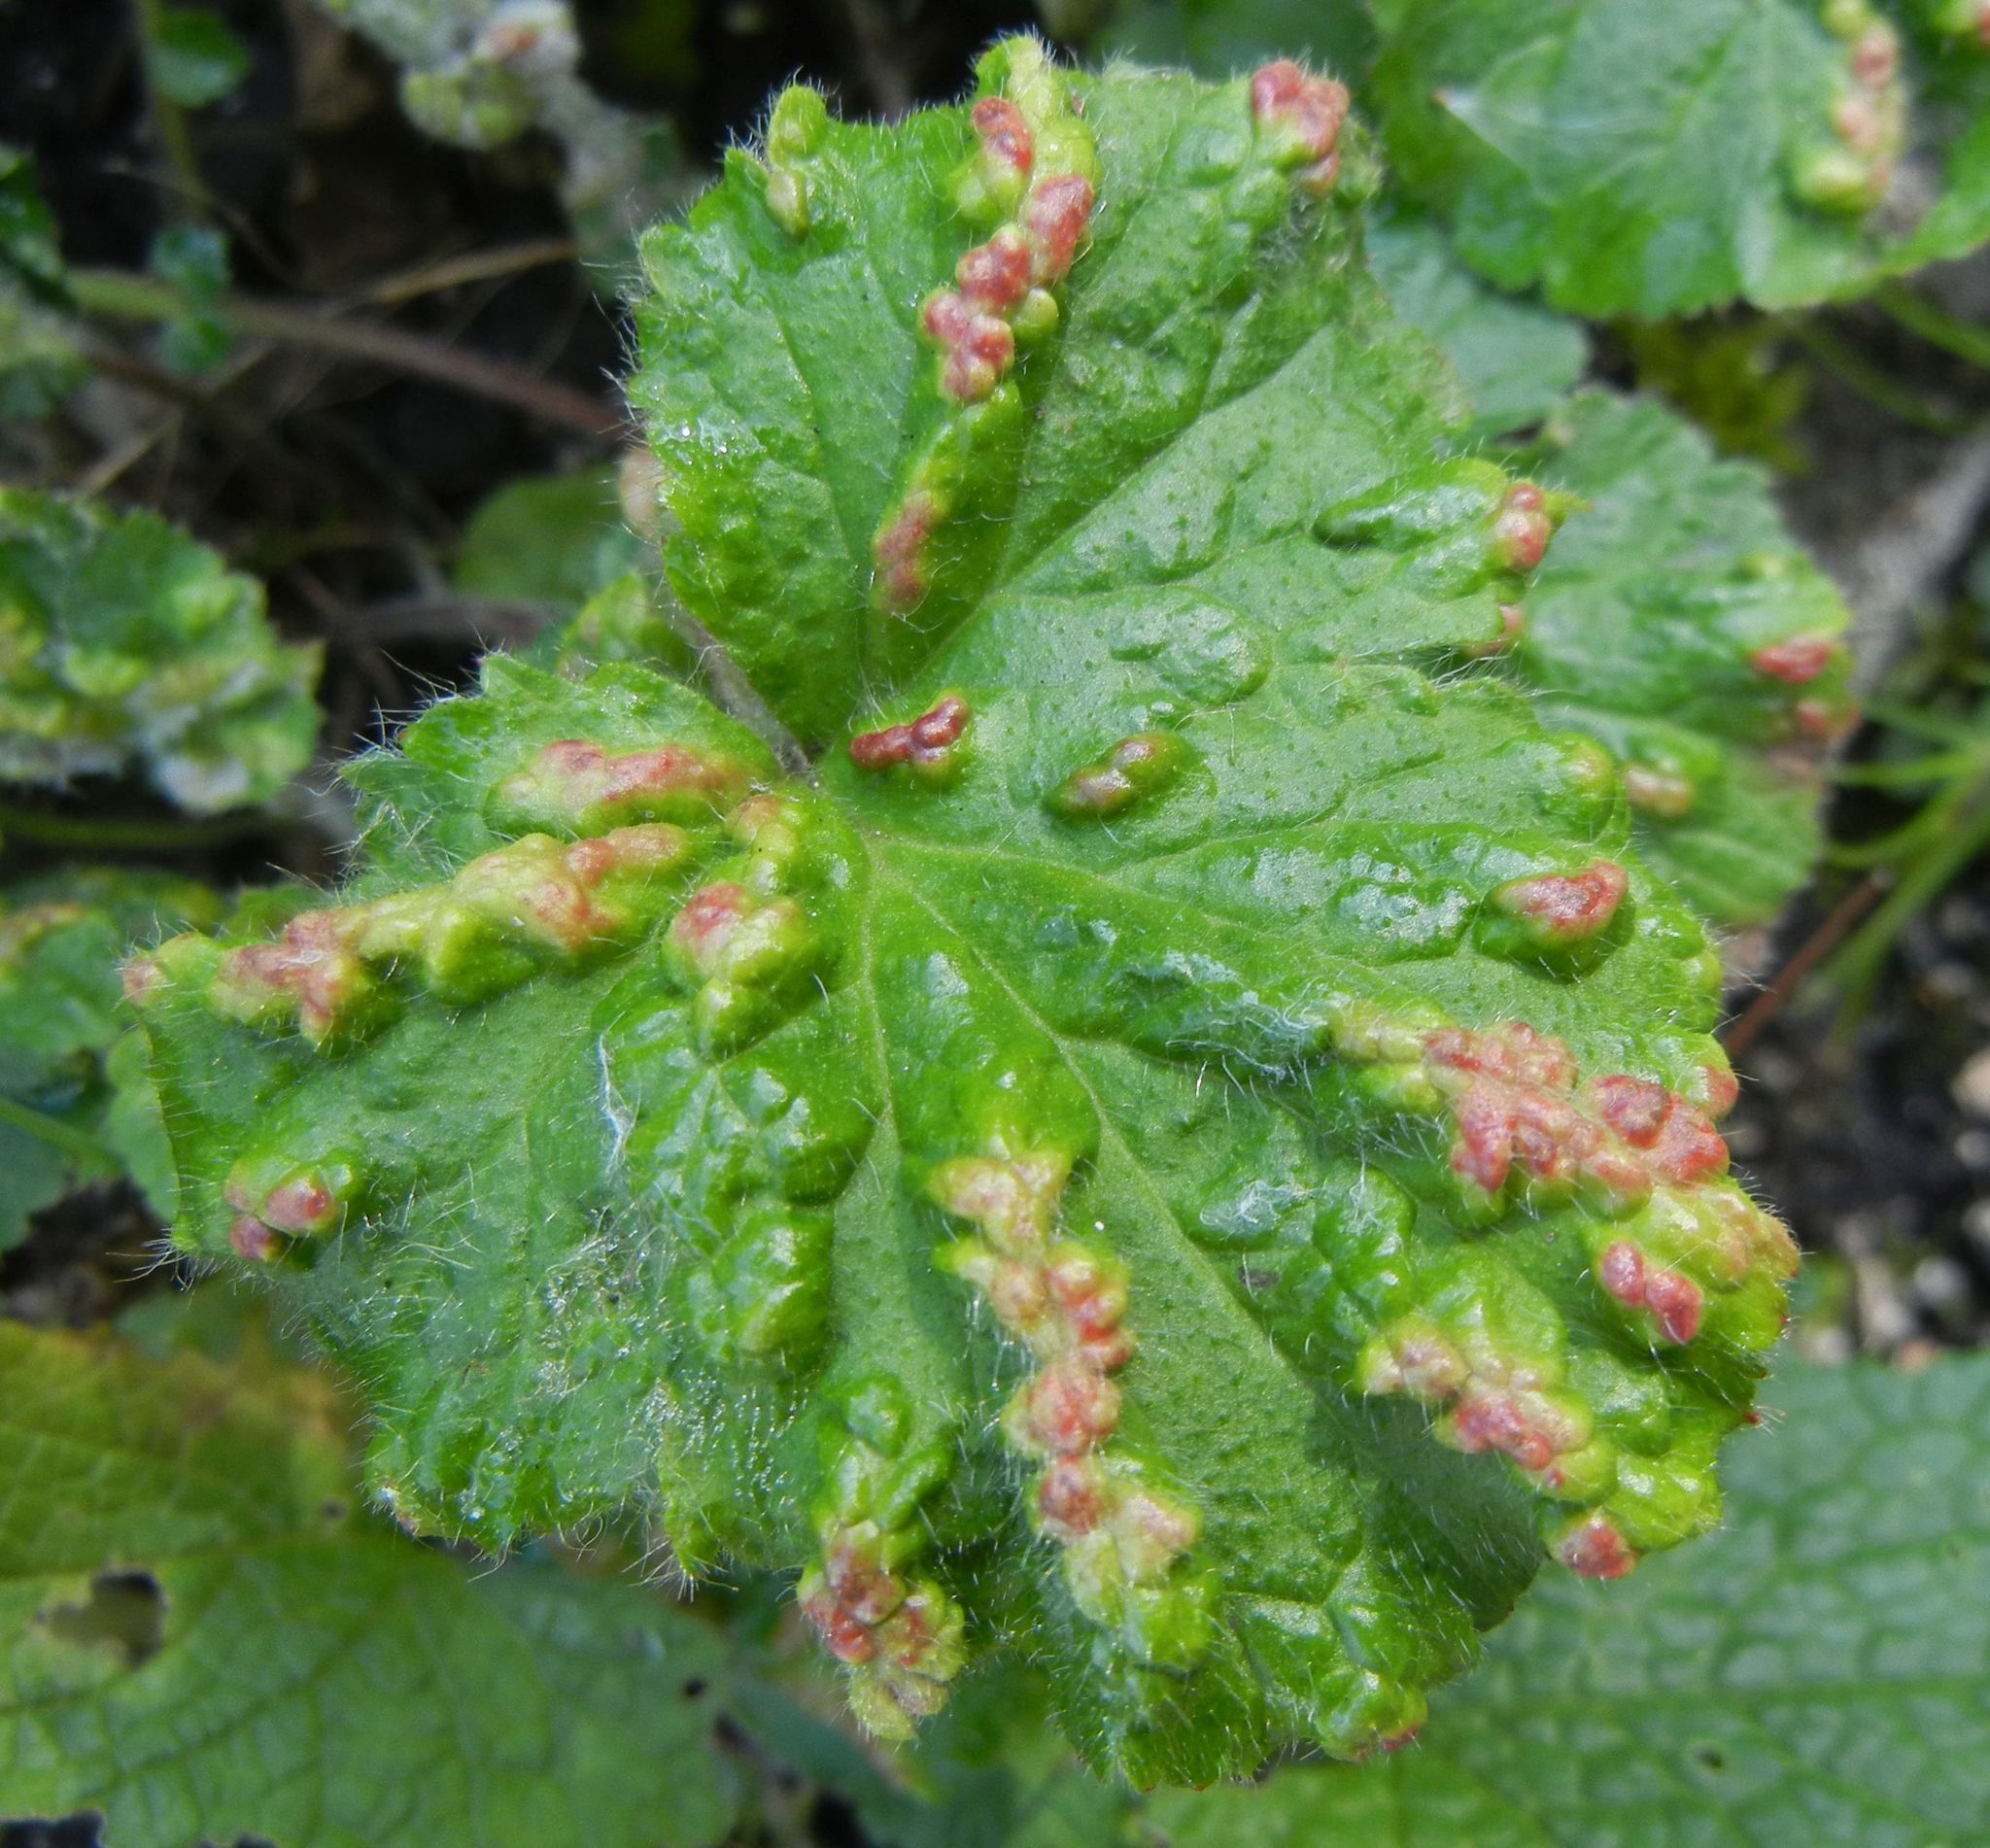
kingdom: Animalia
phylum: Arthropoda
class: Arachnida
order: Trombidiformes
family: Eriophyidae
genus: Cecidophyes
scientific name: Cecidophyes nudus
